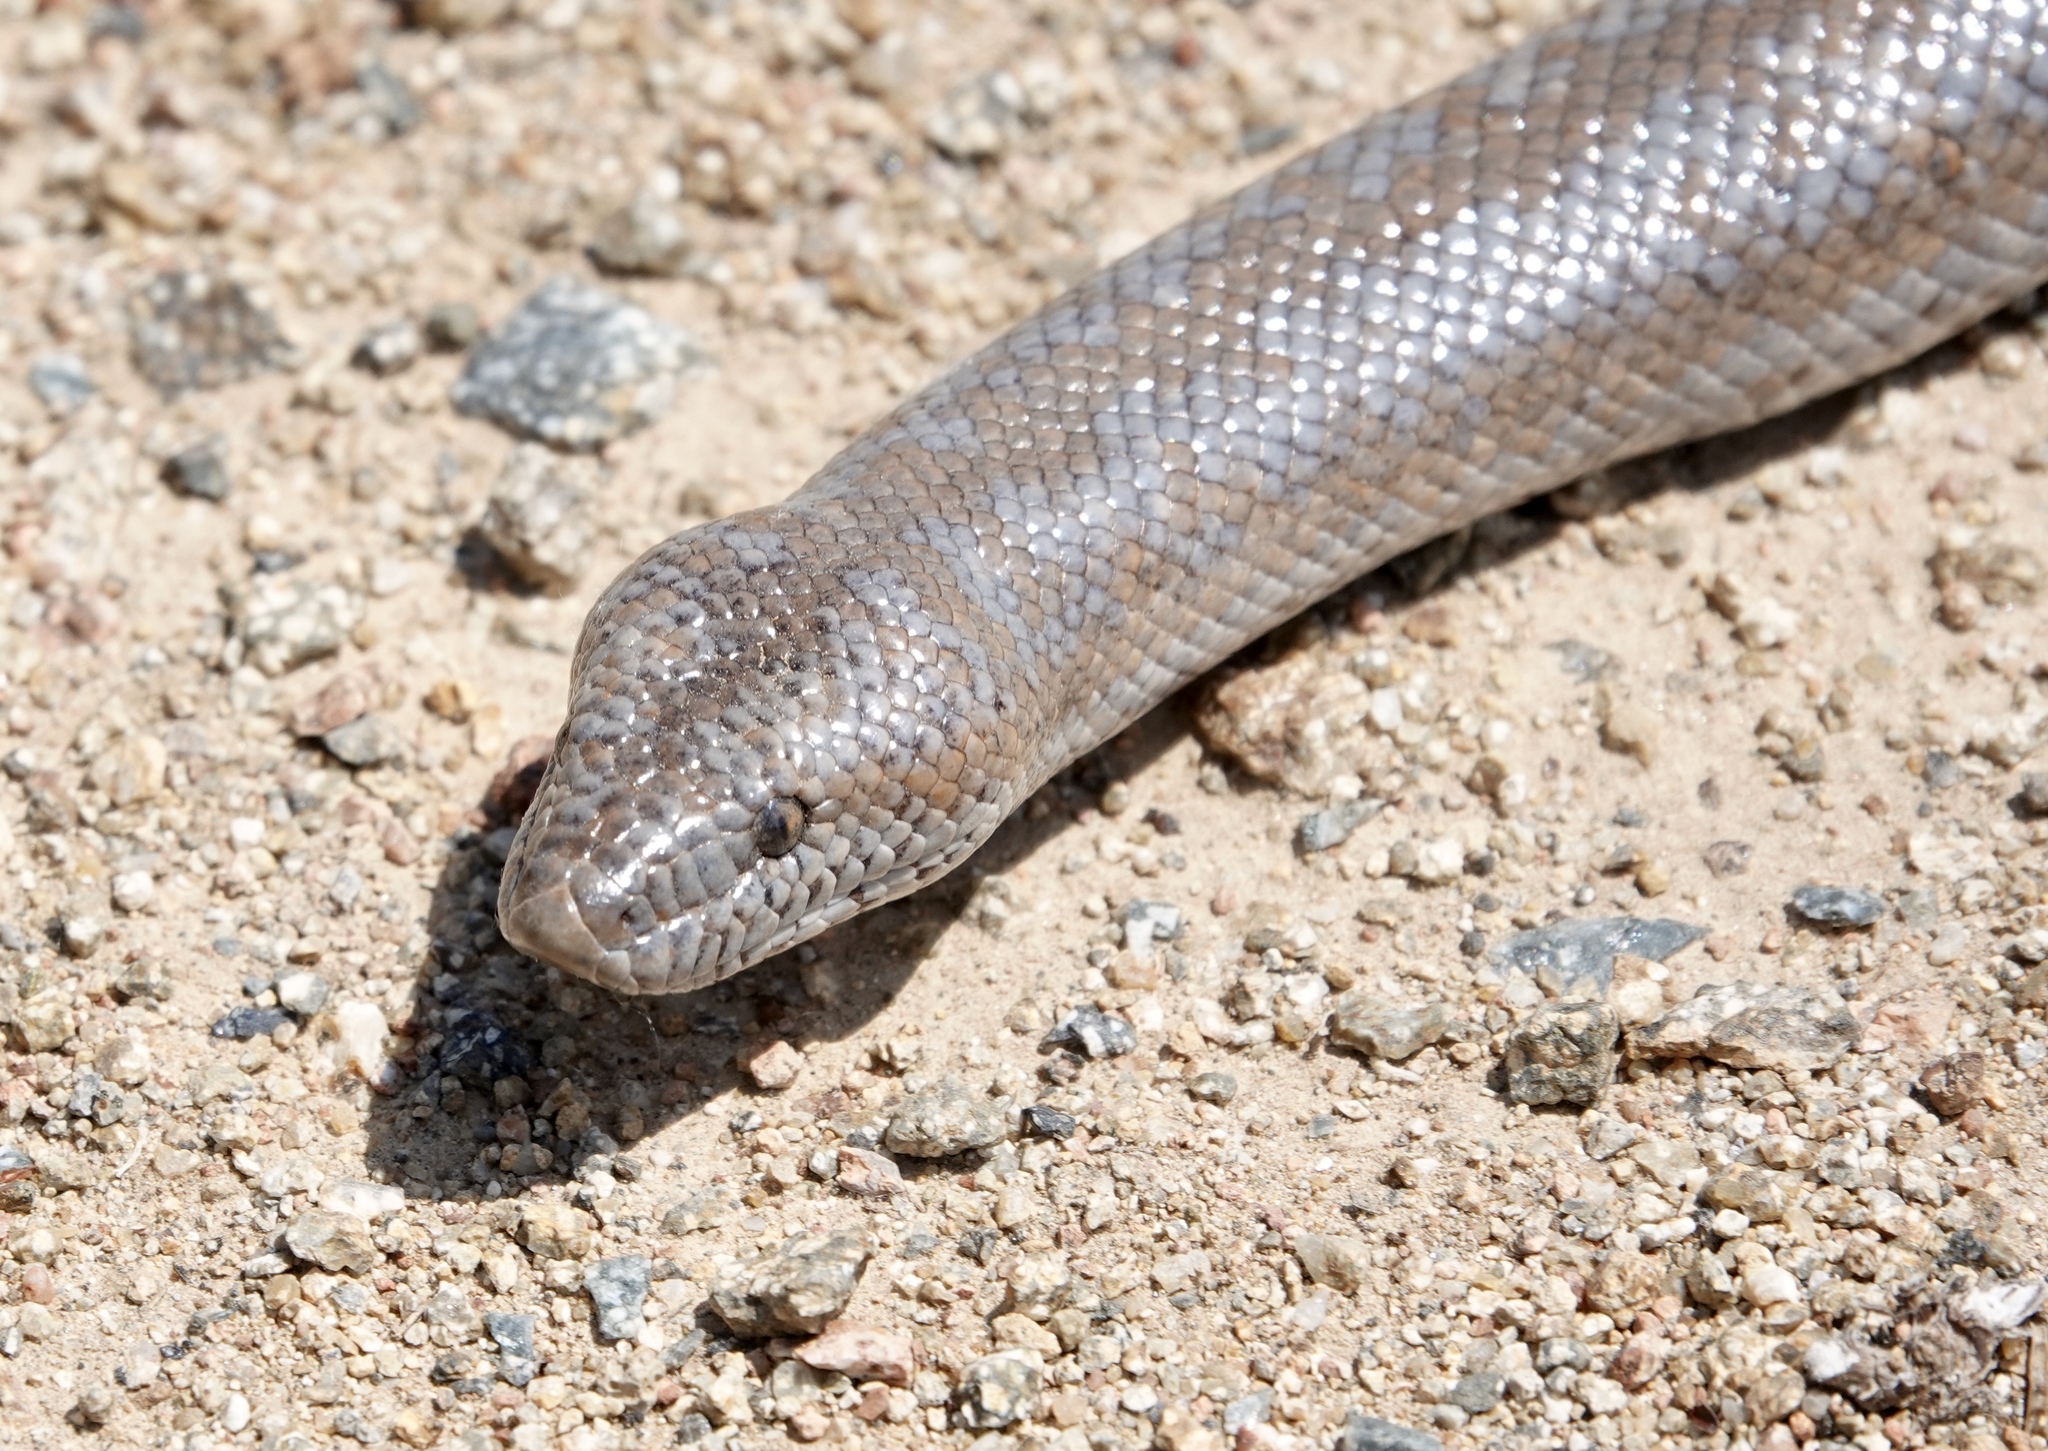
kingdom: Animalia
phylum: Chordata
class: Squamata
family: Boidae
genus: Lichanura
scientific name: Lichanura orcutti
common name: Northern three-lined boa
